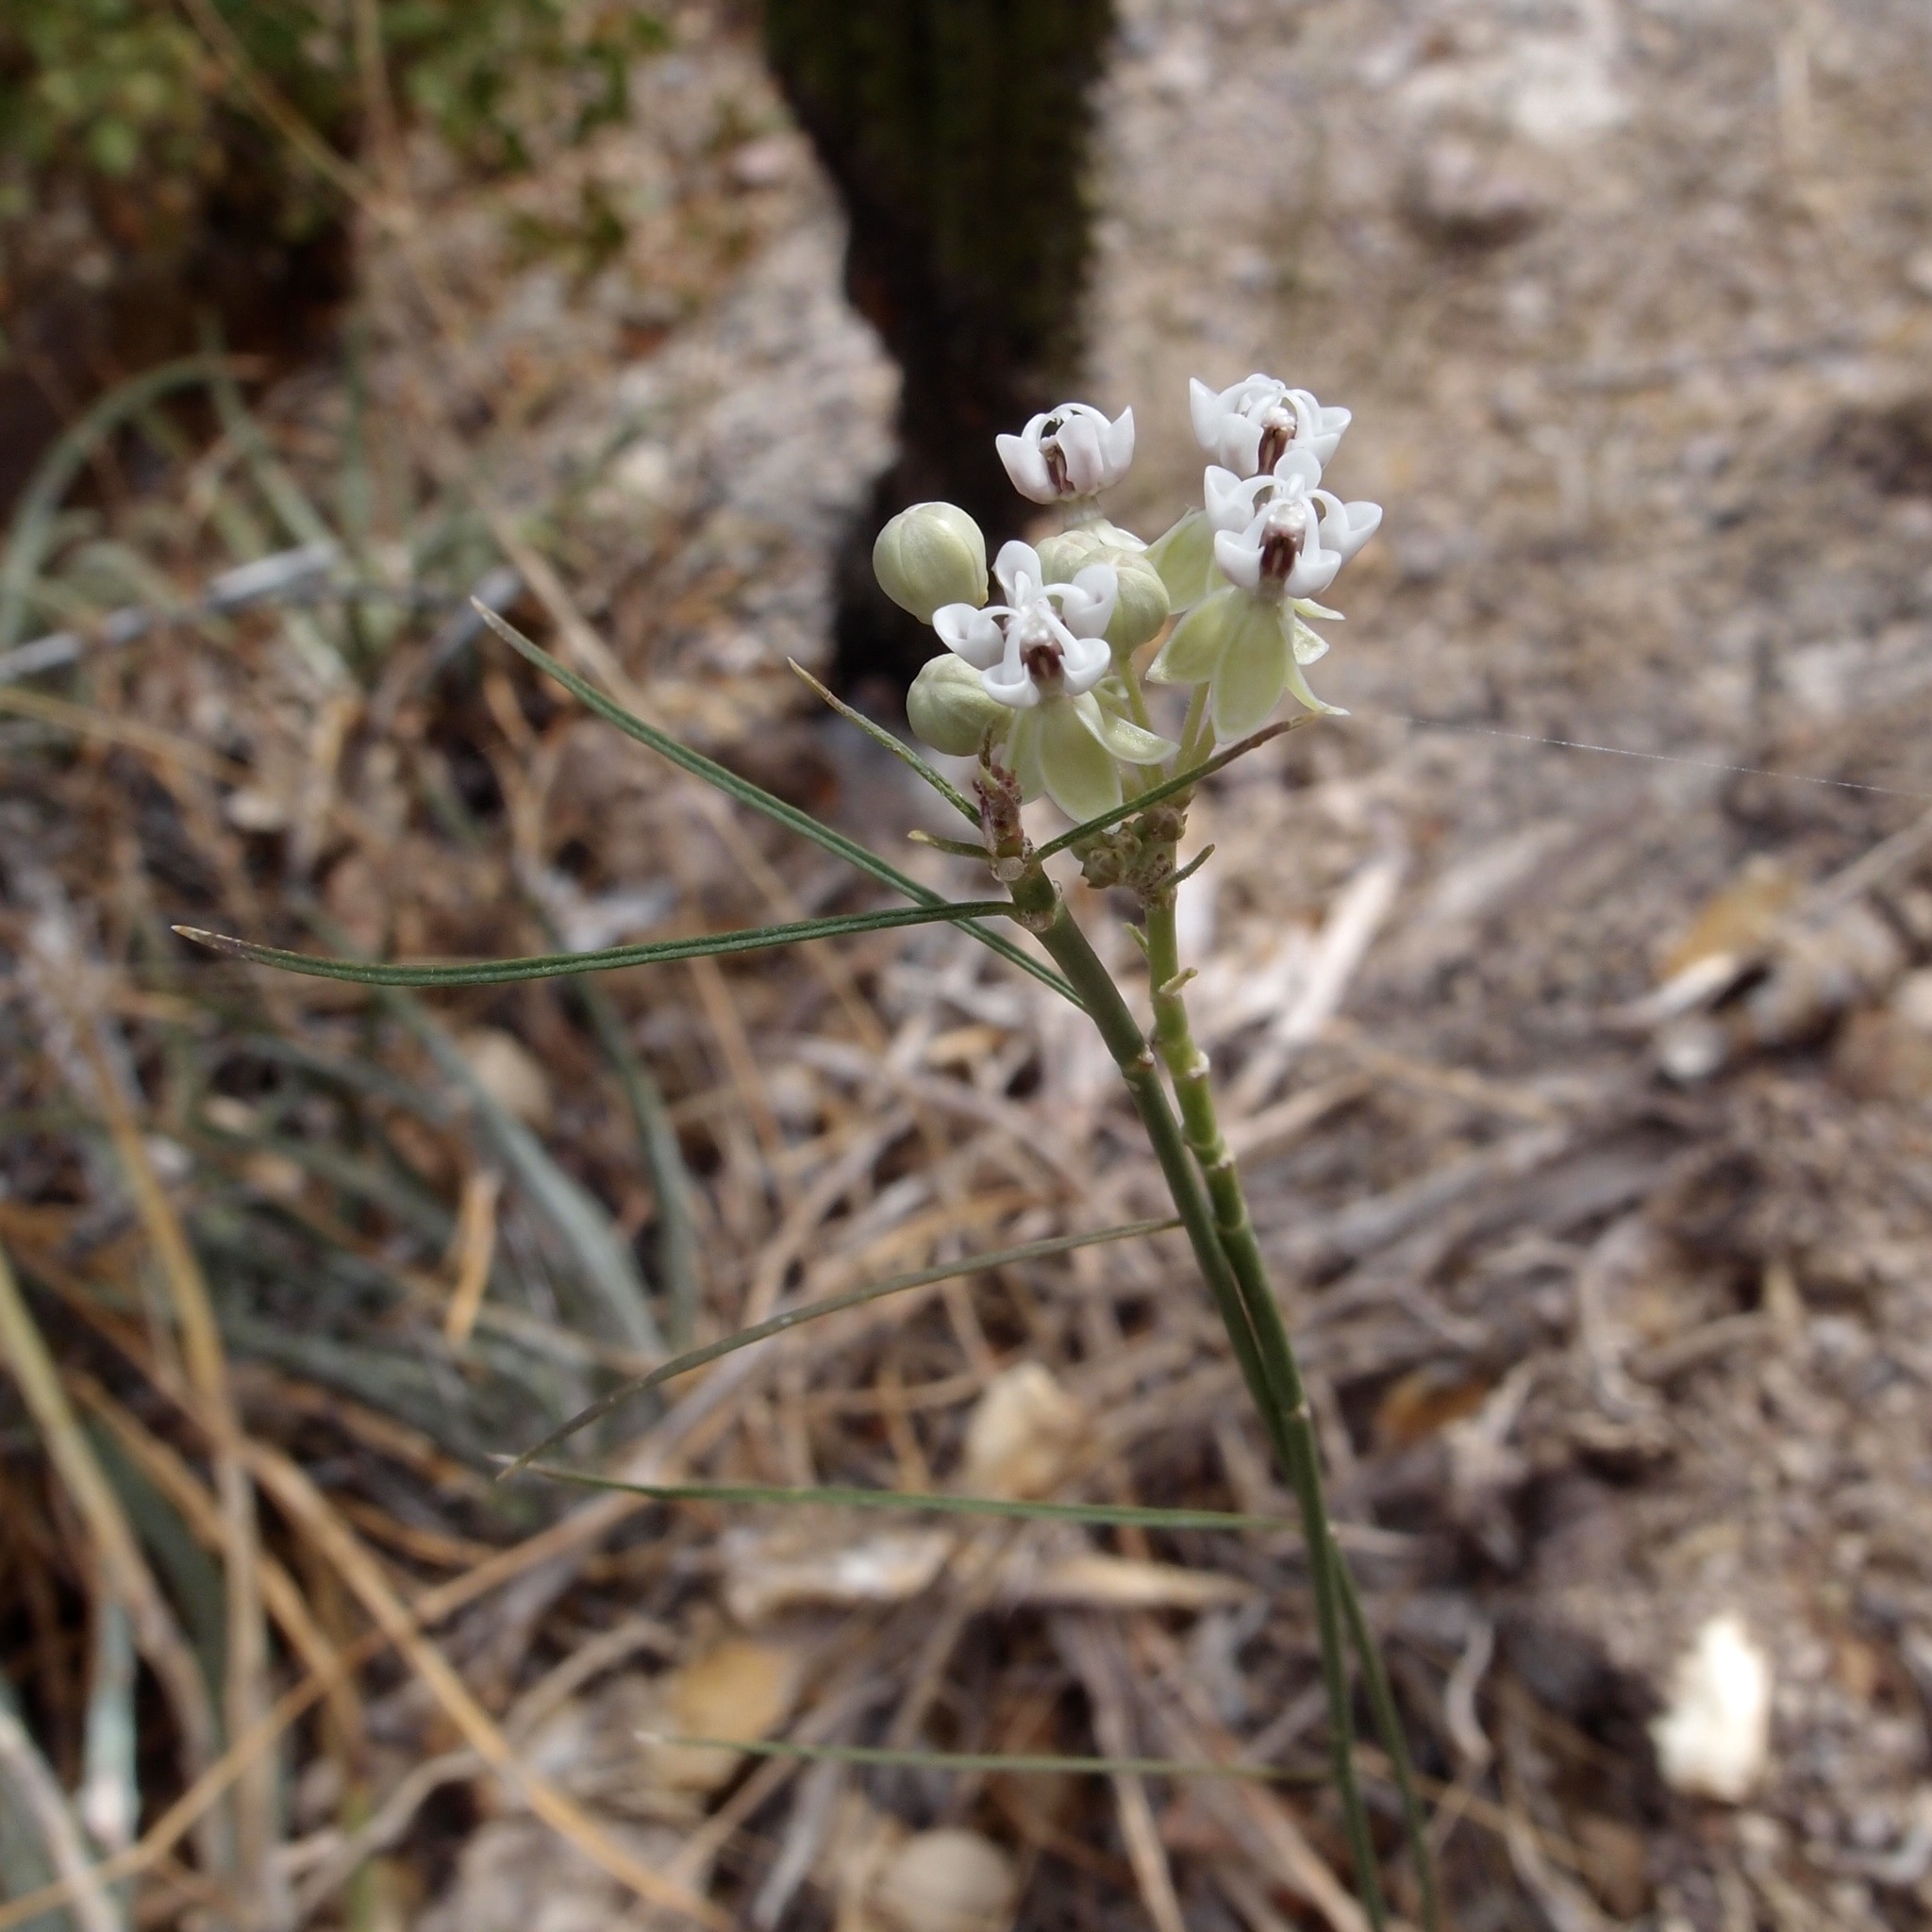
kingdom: Plantae
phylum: Tracheophyta
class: Magnoliopsida
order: Gentianales
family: Apocynaceae
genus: Asclepias
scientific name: Asclepias leptopus
